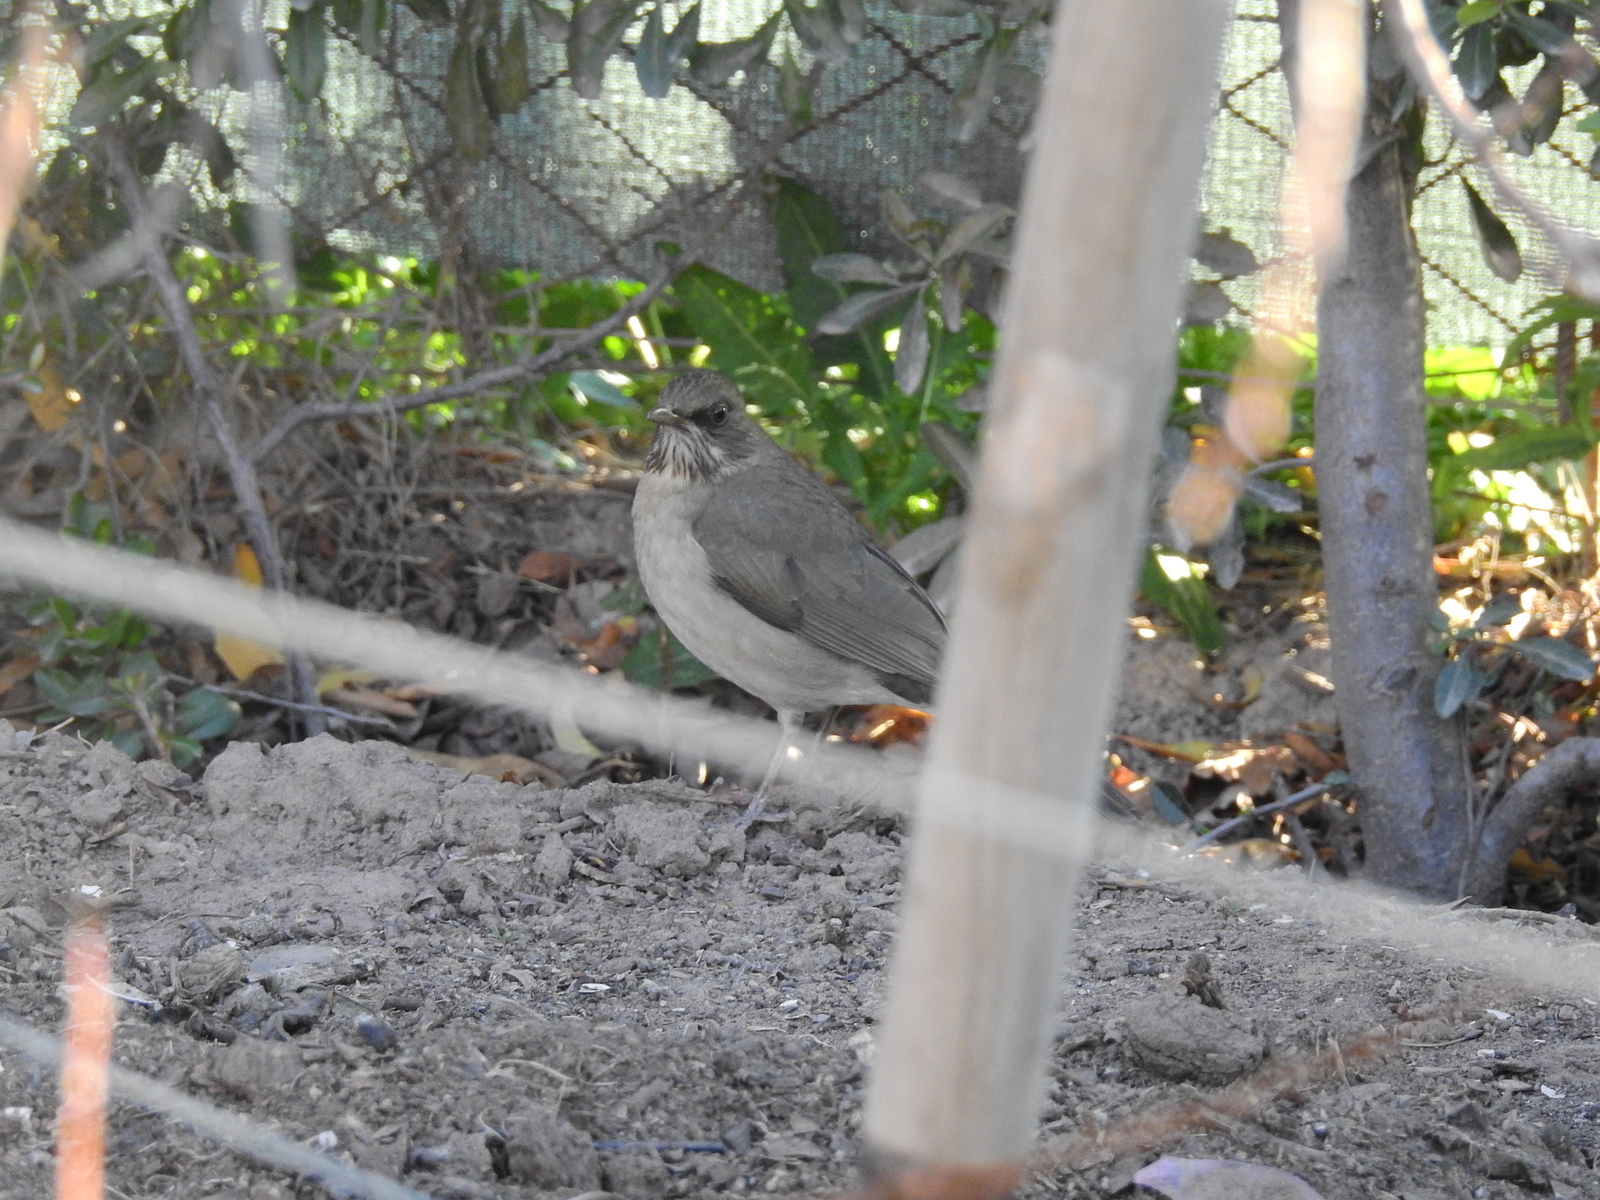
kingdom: Animalia
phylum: Chordata
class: Aves
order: Passeriformes
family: Turdidae
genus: Turdus
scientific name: Turdus amaurochalinus
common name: Creamy-bellied thrush
